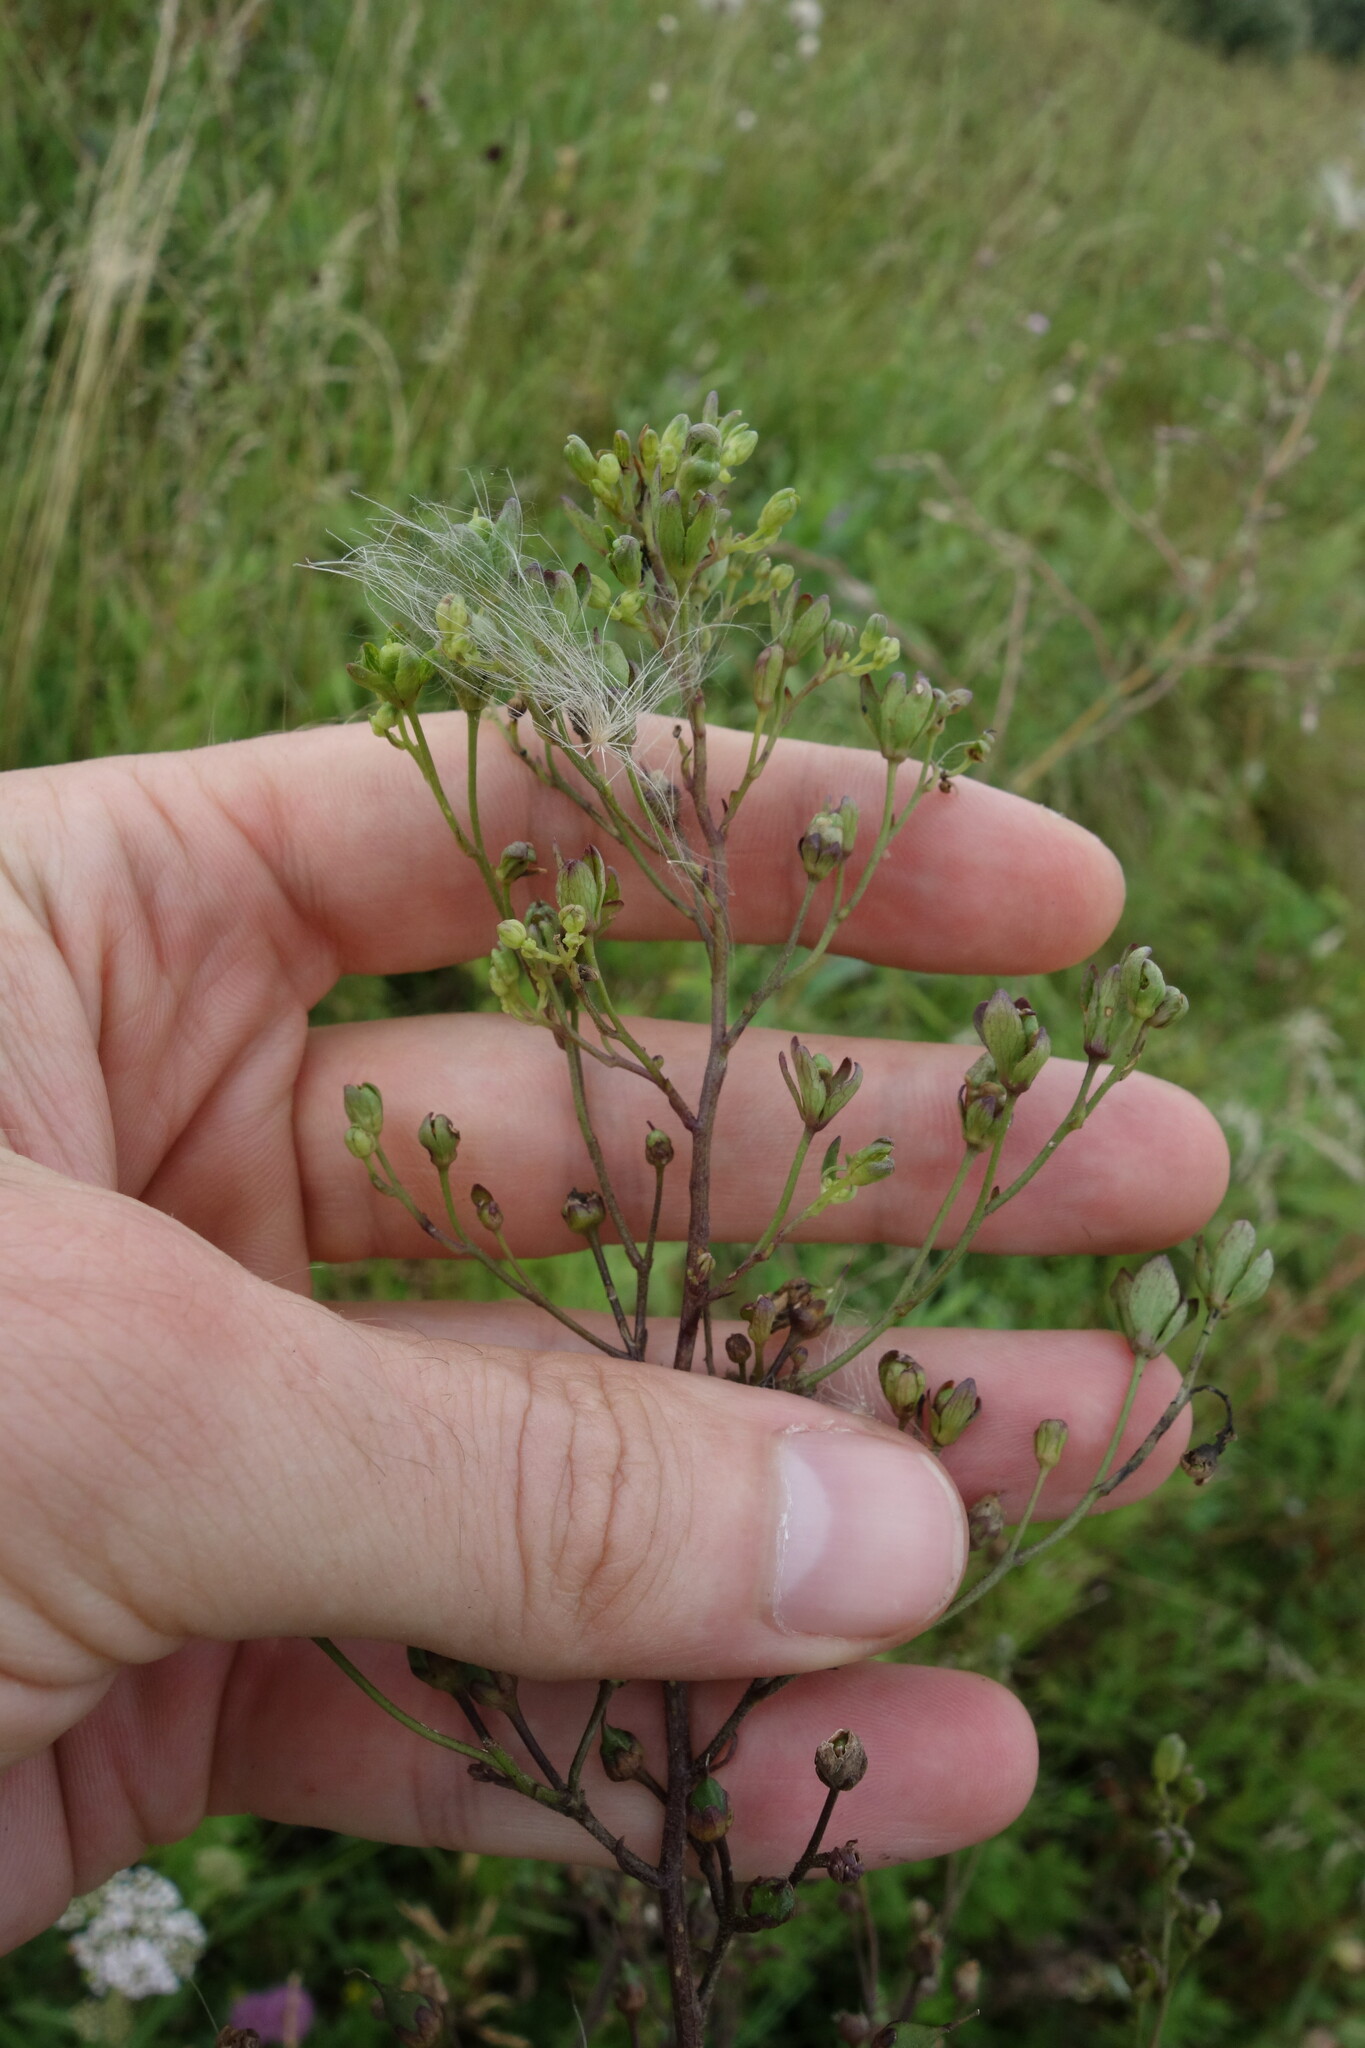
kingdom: Plantae
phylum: Tracheophyta
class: Magnoliopsida
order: Lamiales
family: Scrophulariaceae
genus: Scrophularia
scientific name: Scrophularia nodosa
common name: Common figwort
